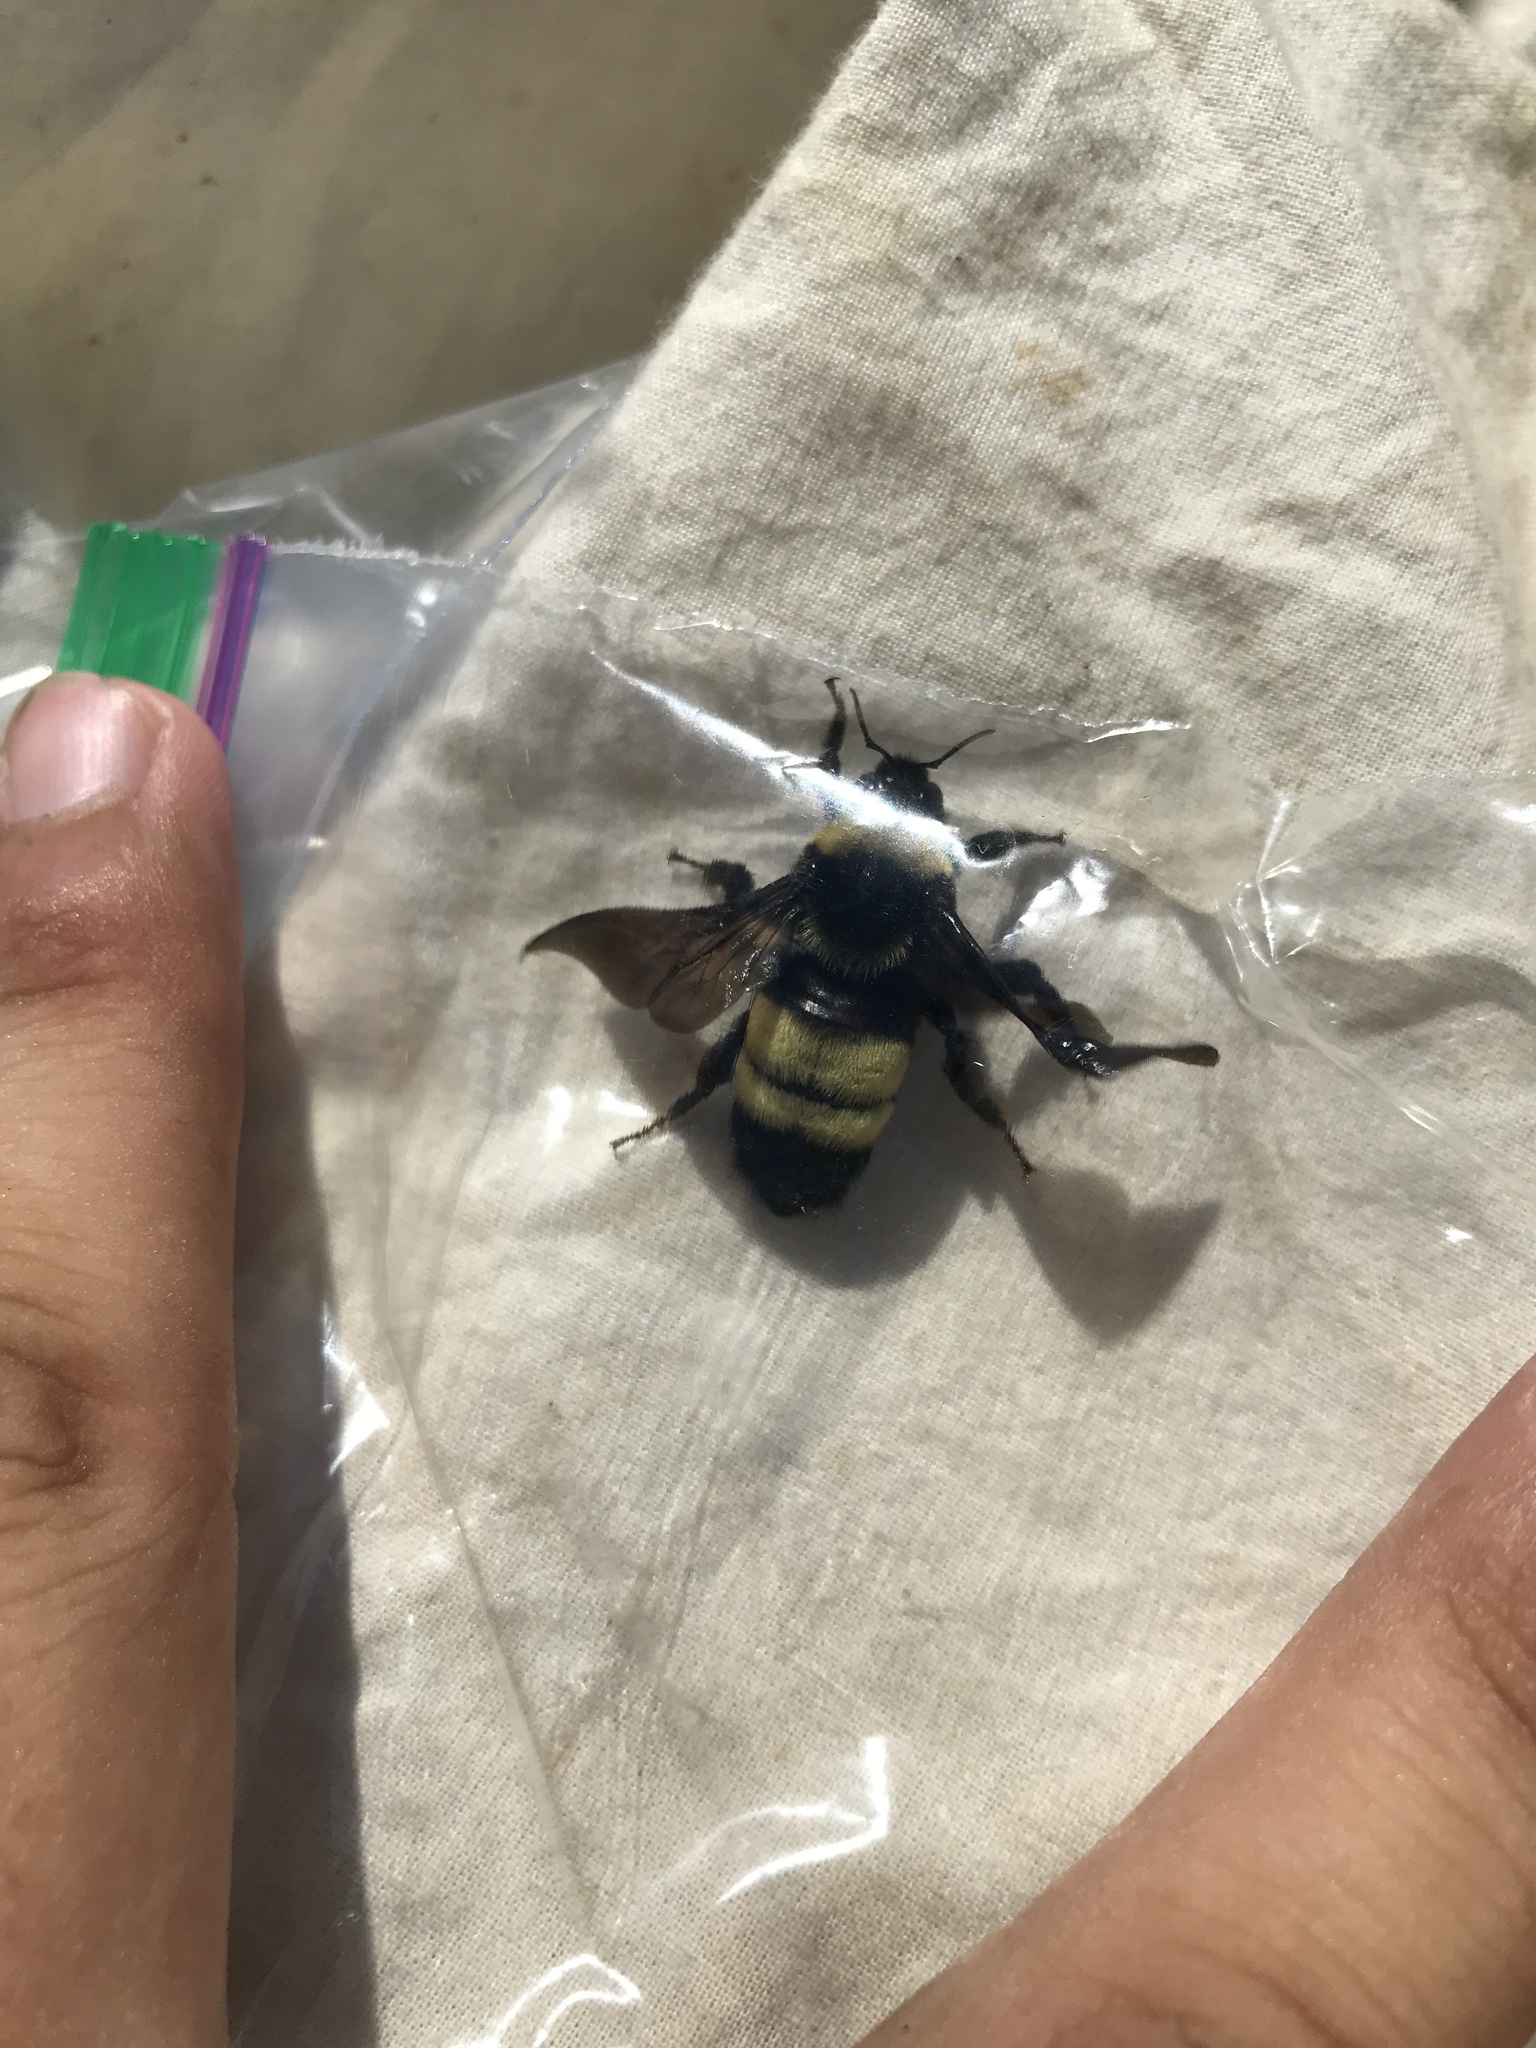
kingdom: Animalia
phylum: Arthropoda
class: Insecta
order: Hymenoptera
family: Apidae
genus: Bombus
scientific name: Bombus auricomus
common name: Black and gold bumble bee
